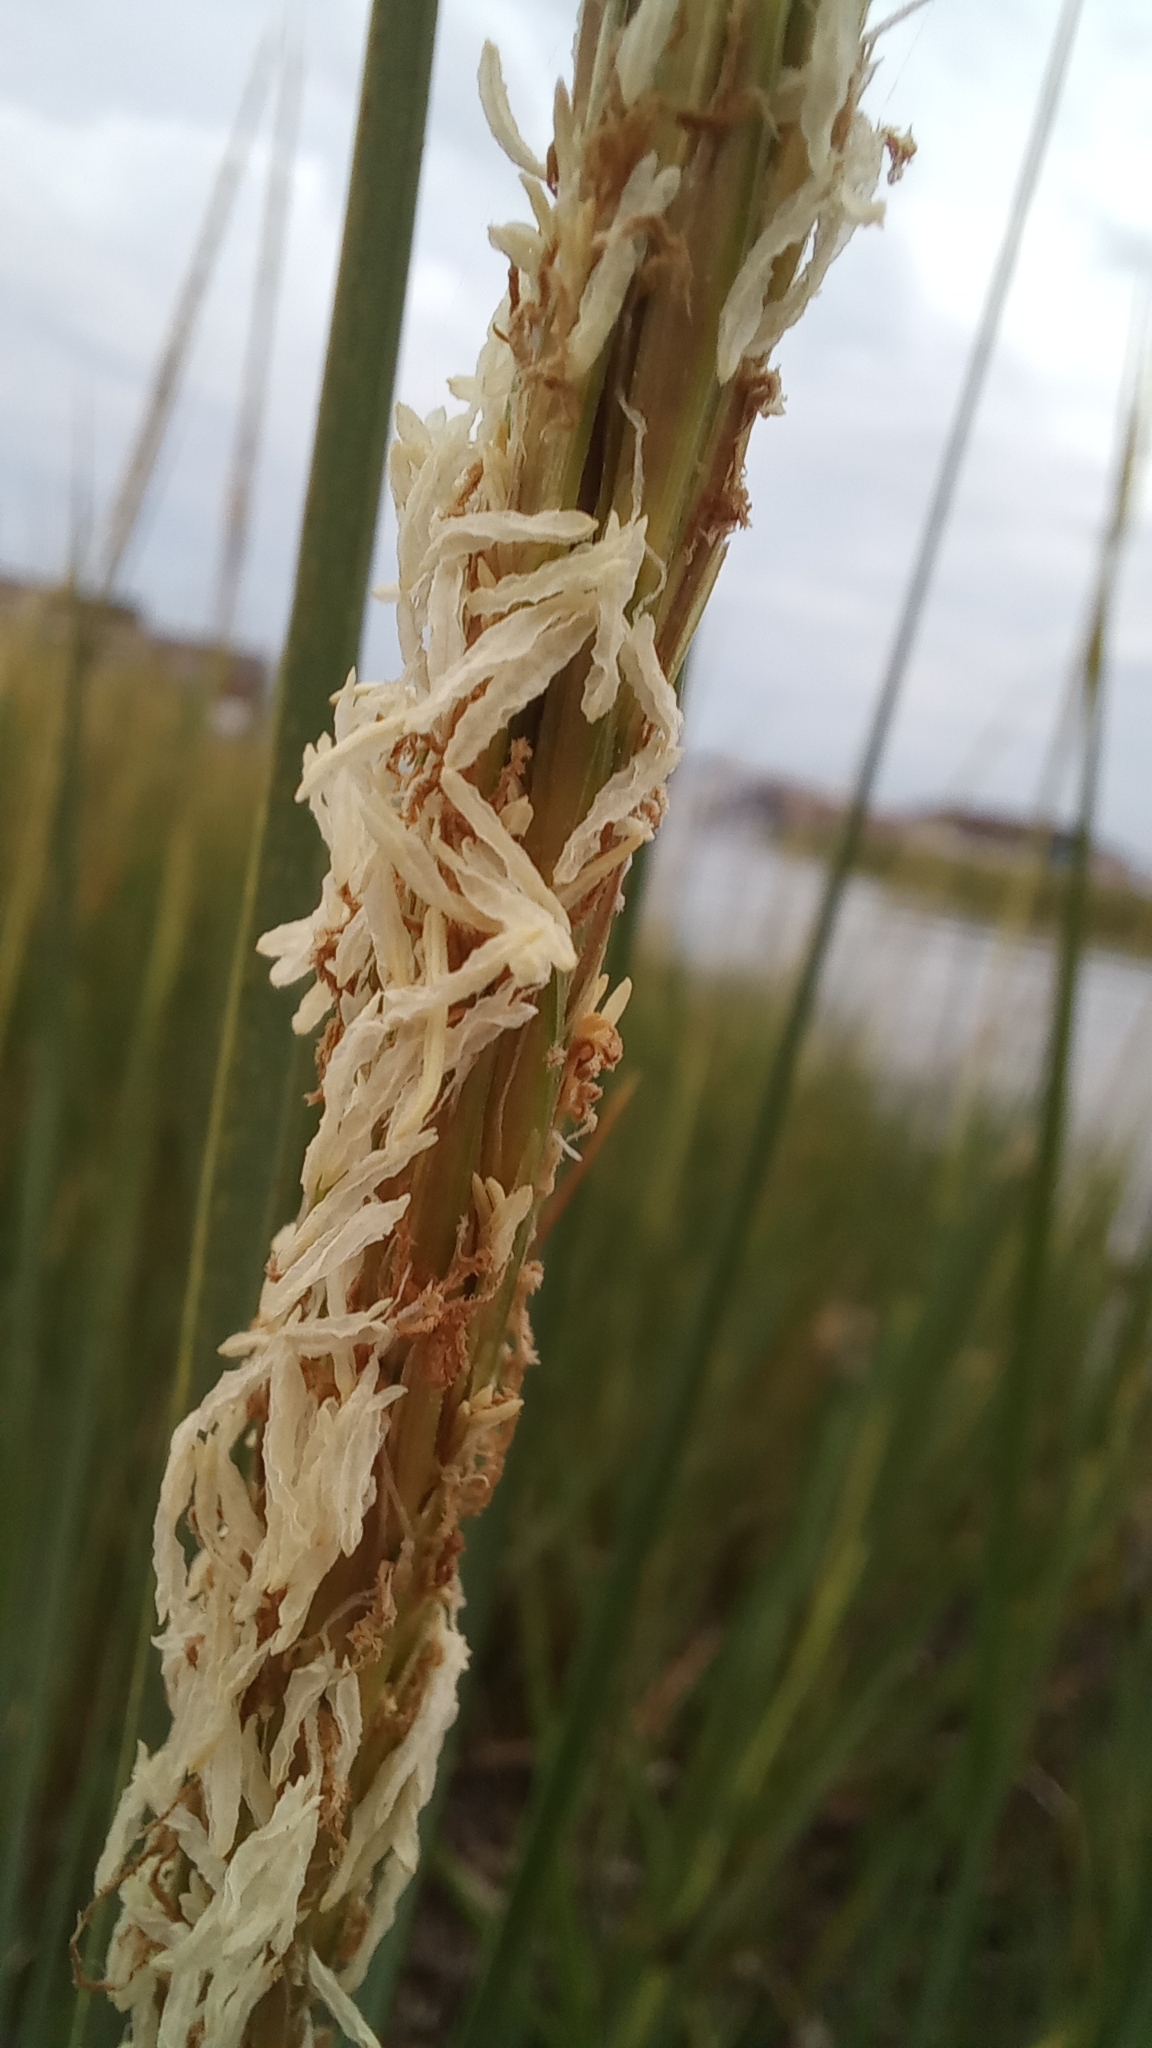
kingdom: Plantae
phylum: Tracheophyta
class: Liliopsida
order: Poales
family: Poaceae
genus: Sporobolus
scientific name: Sporobolus alterniflorus
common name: Atlantic cordgrass
